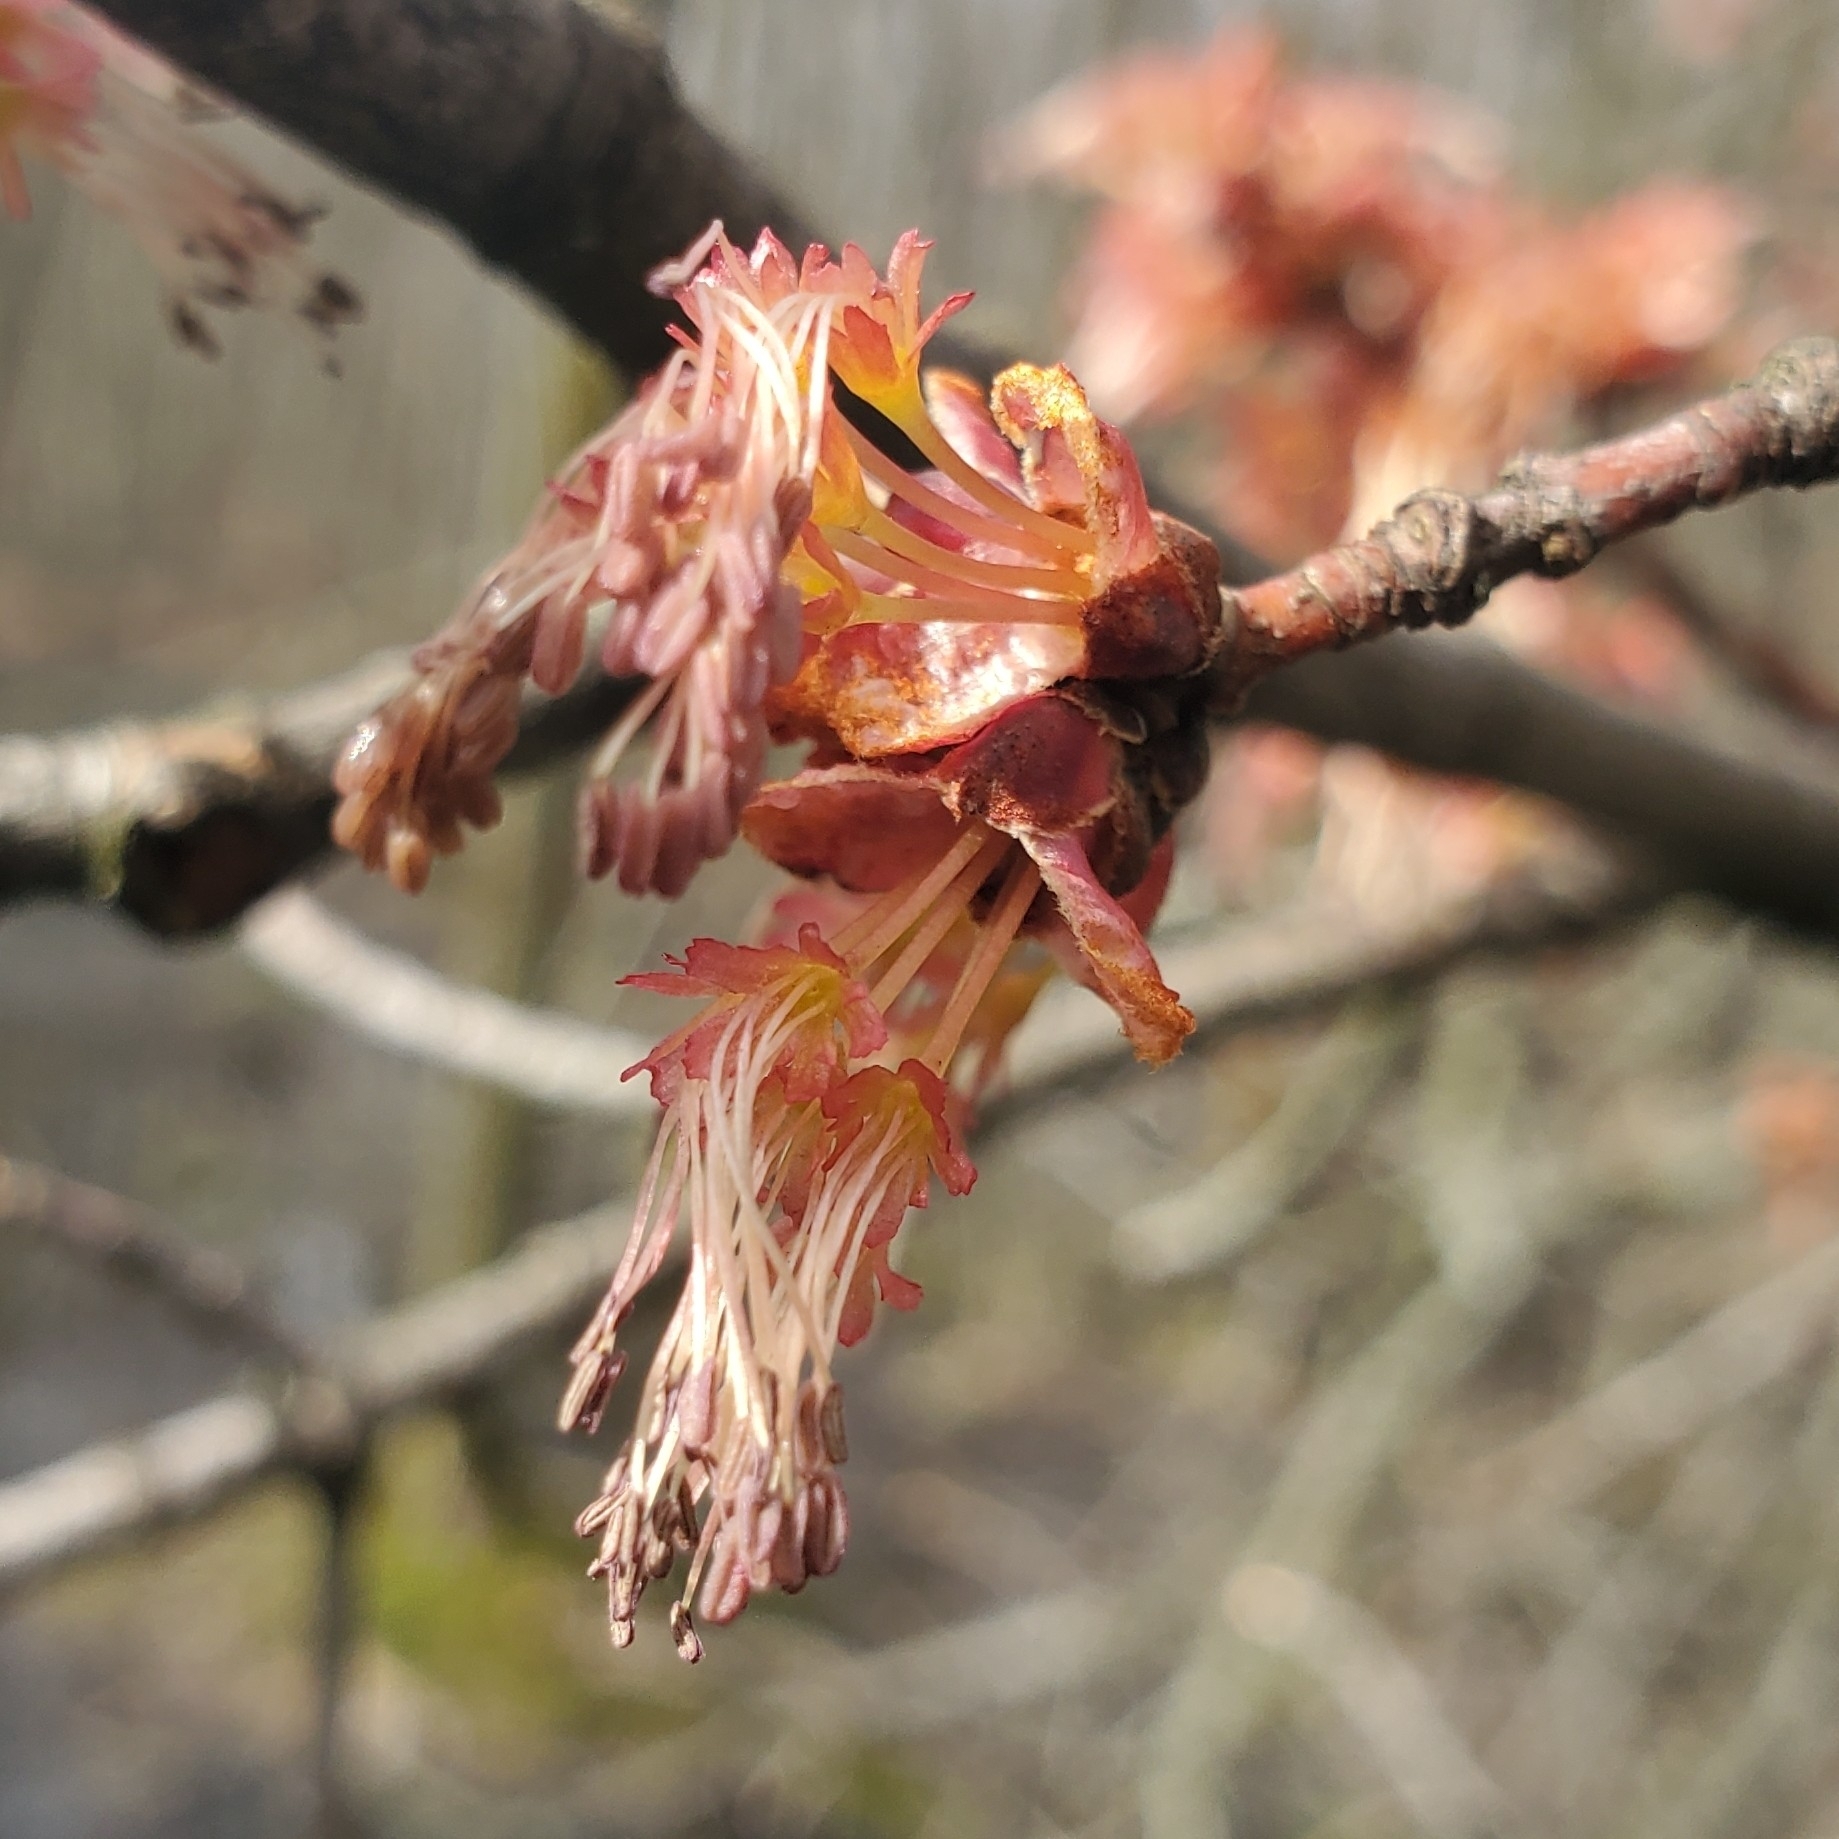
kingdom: Plantae
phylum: Tracheophyta
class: Magnoliopsida
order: Sapindales
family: Sapindaceae
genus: Acer
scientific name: Acer rubrum
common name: Red maple
